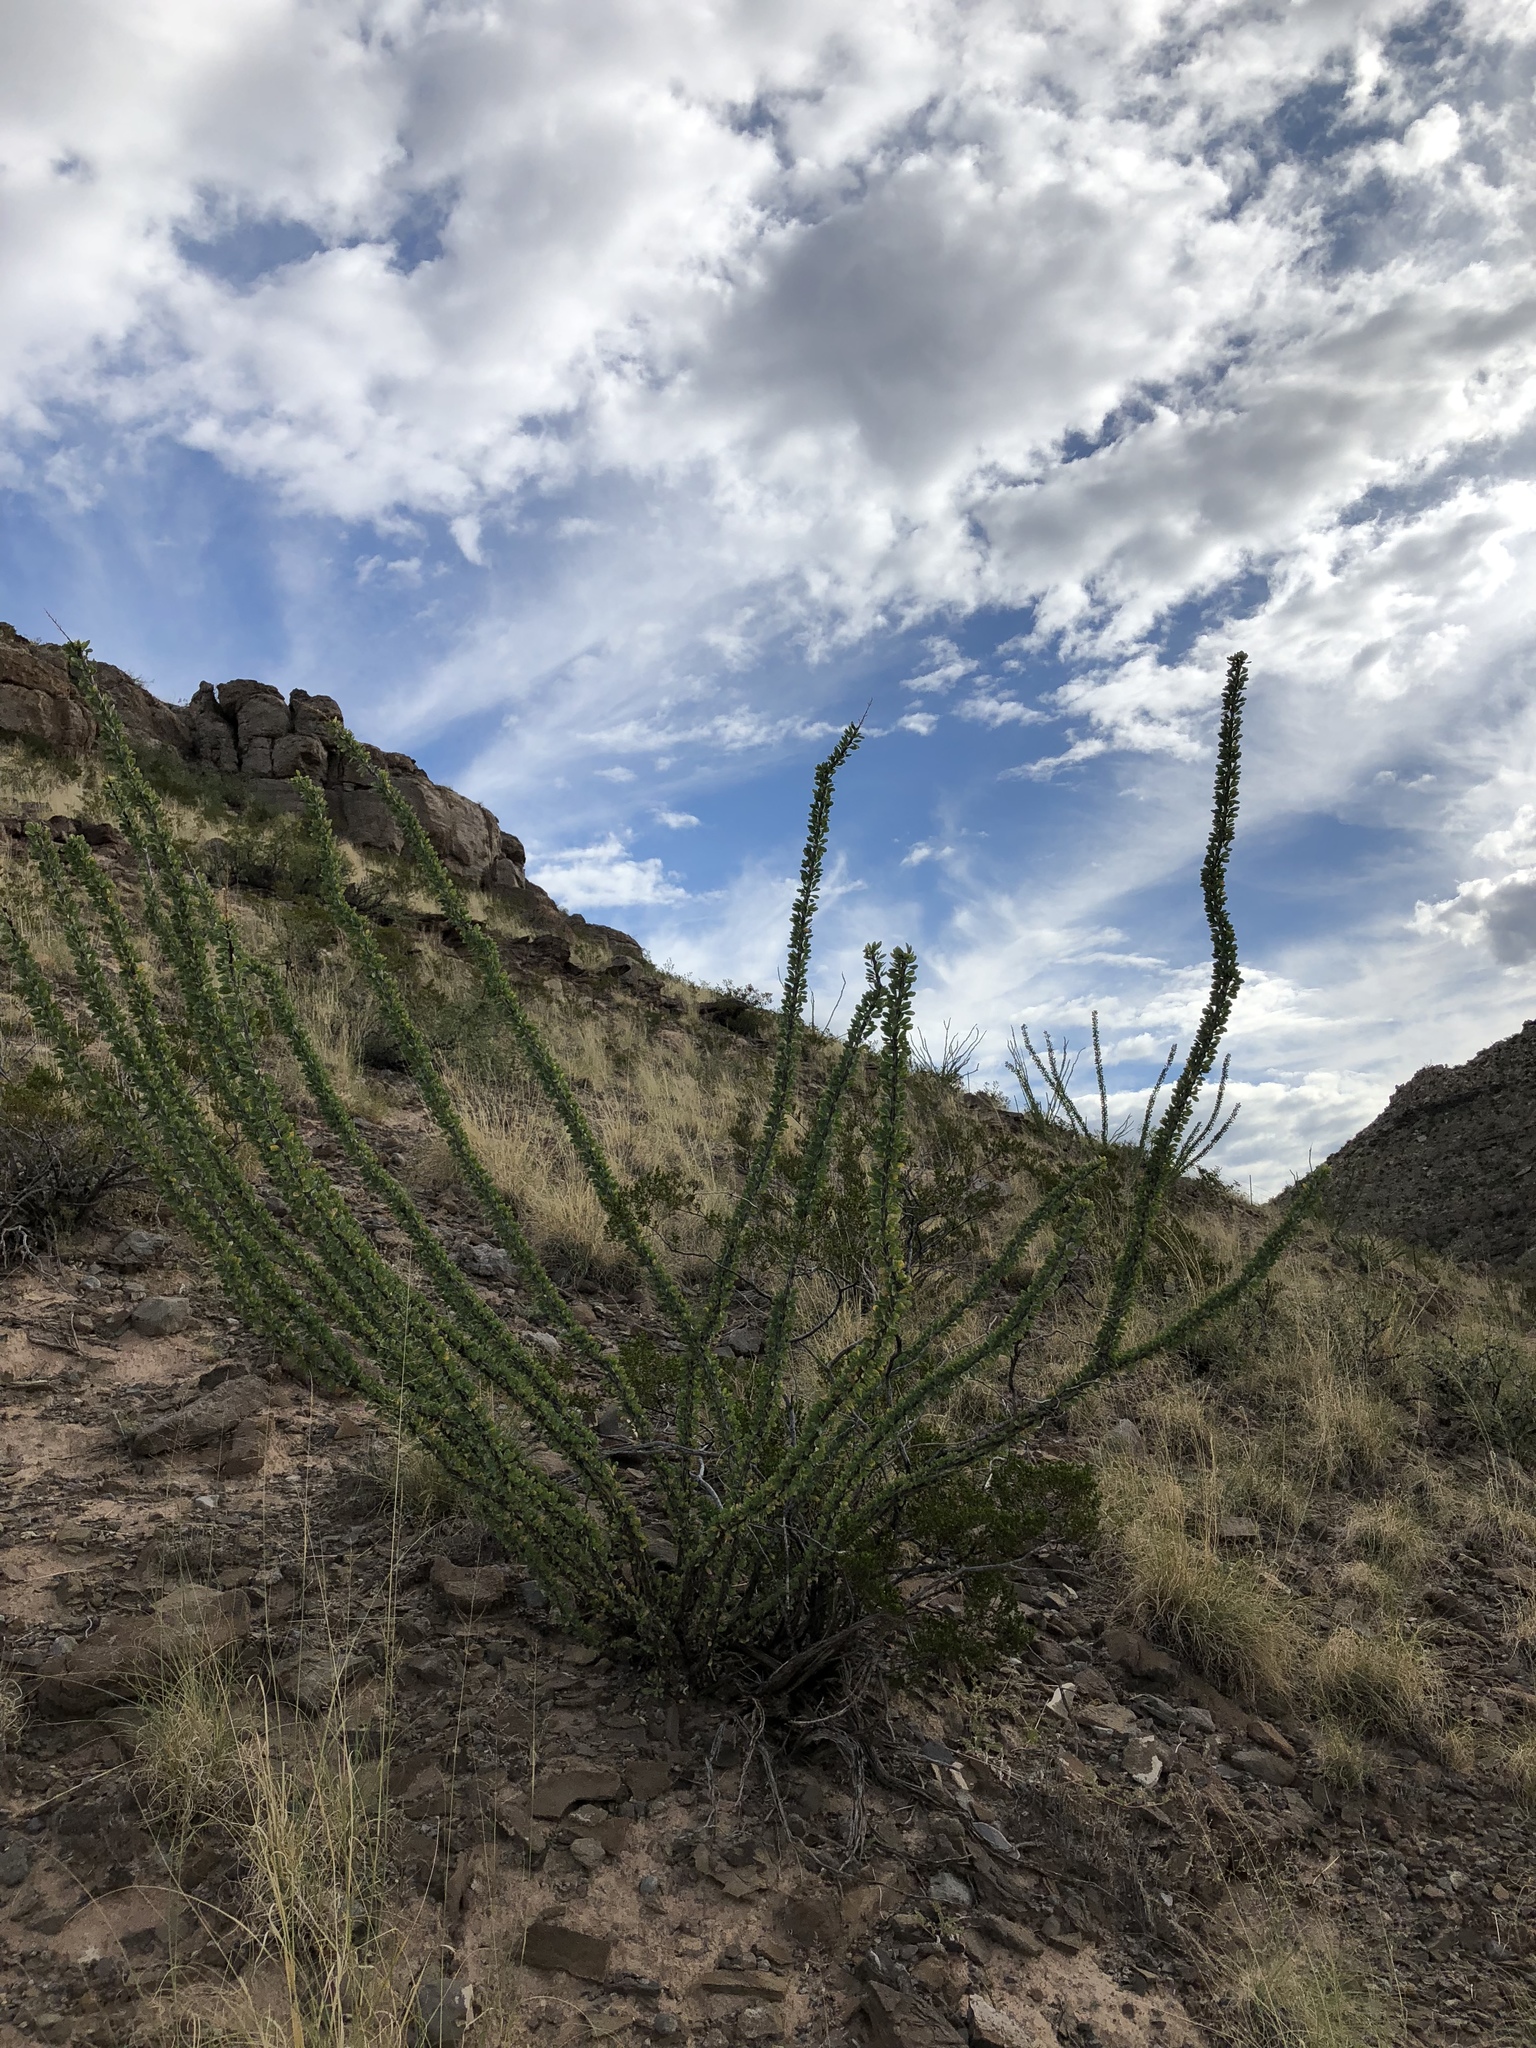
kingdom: Plantae
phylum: Tracheophyta
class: Magnoliopsida
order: Ericales
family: Fouquieriaceae
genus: Fouquieria
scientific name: Fouquieria splendens
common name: Vine-cactus
